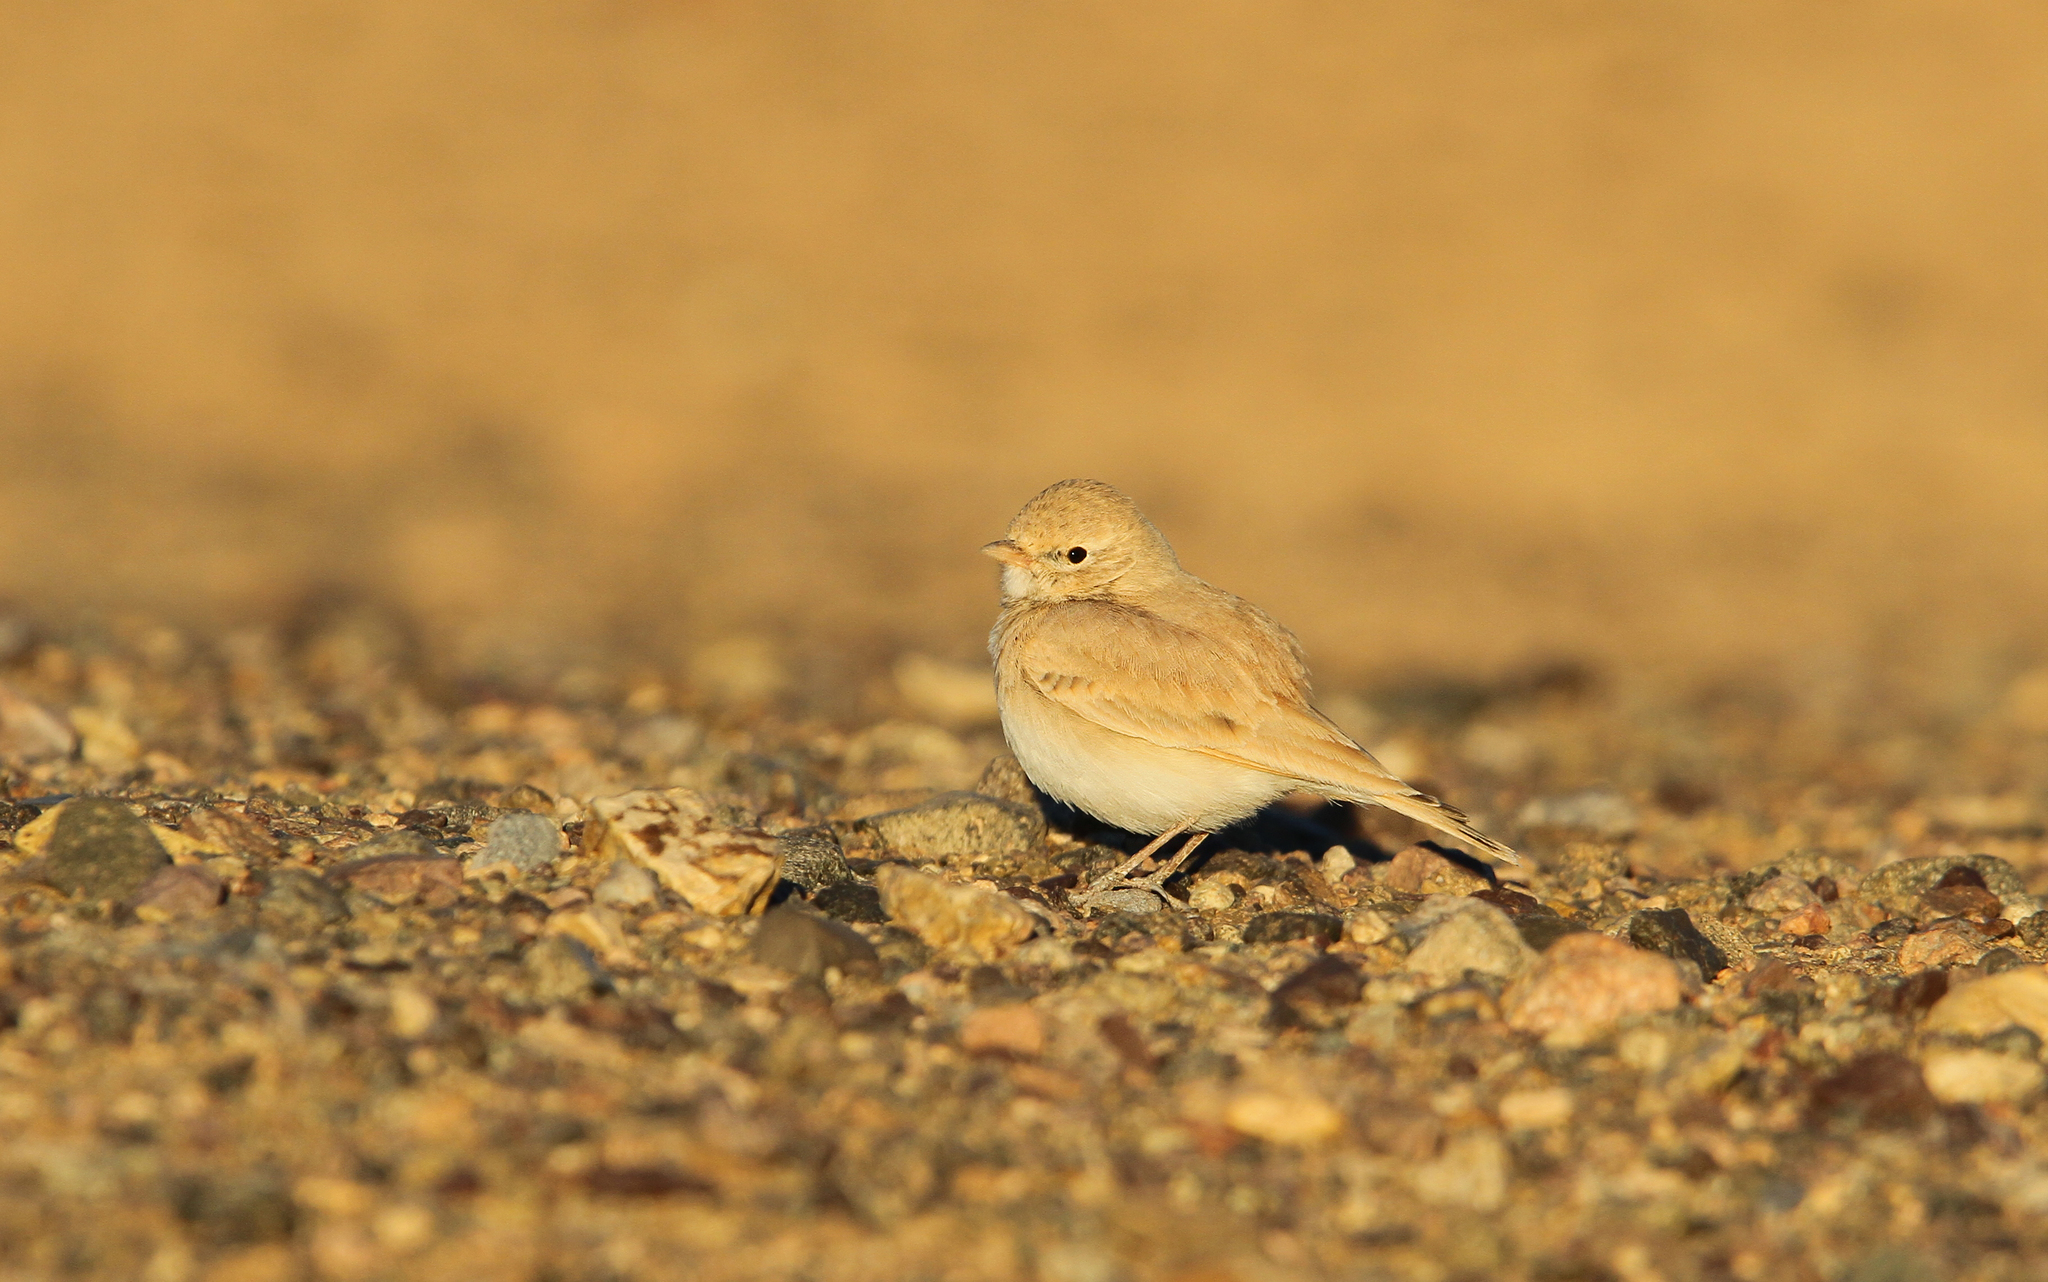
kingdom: Animalia
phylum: Chordata
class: Aves
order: Passeriformes
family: Alaudidae
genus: Ammomanes
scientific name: Ammomanes cinctura
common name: Bar-tailed lark
